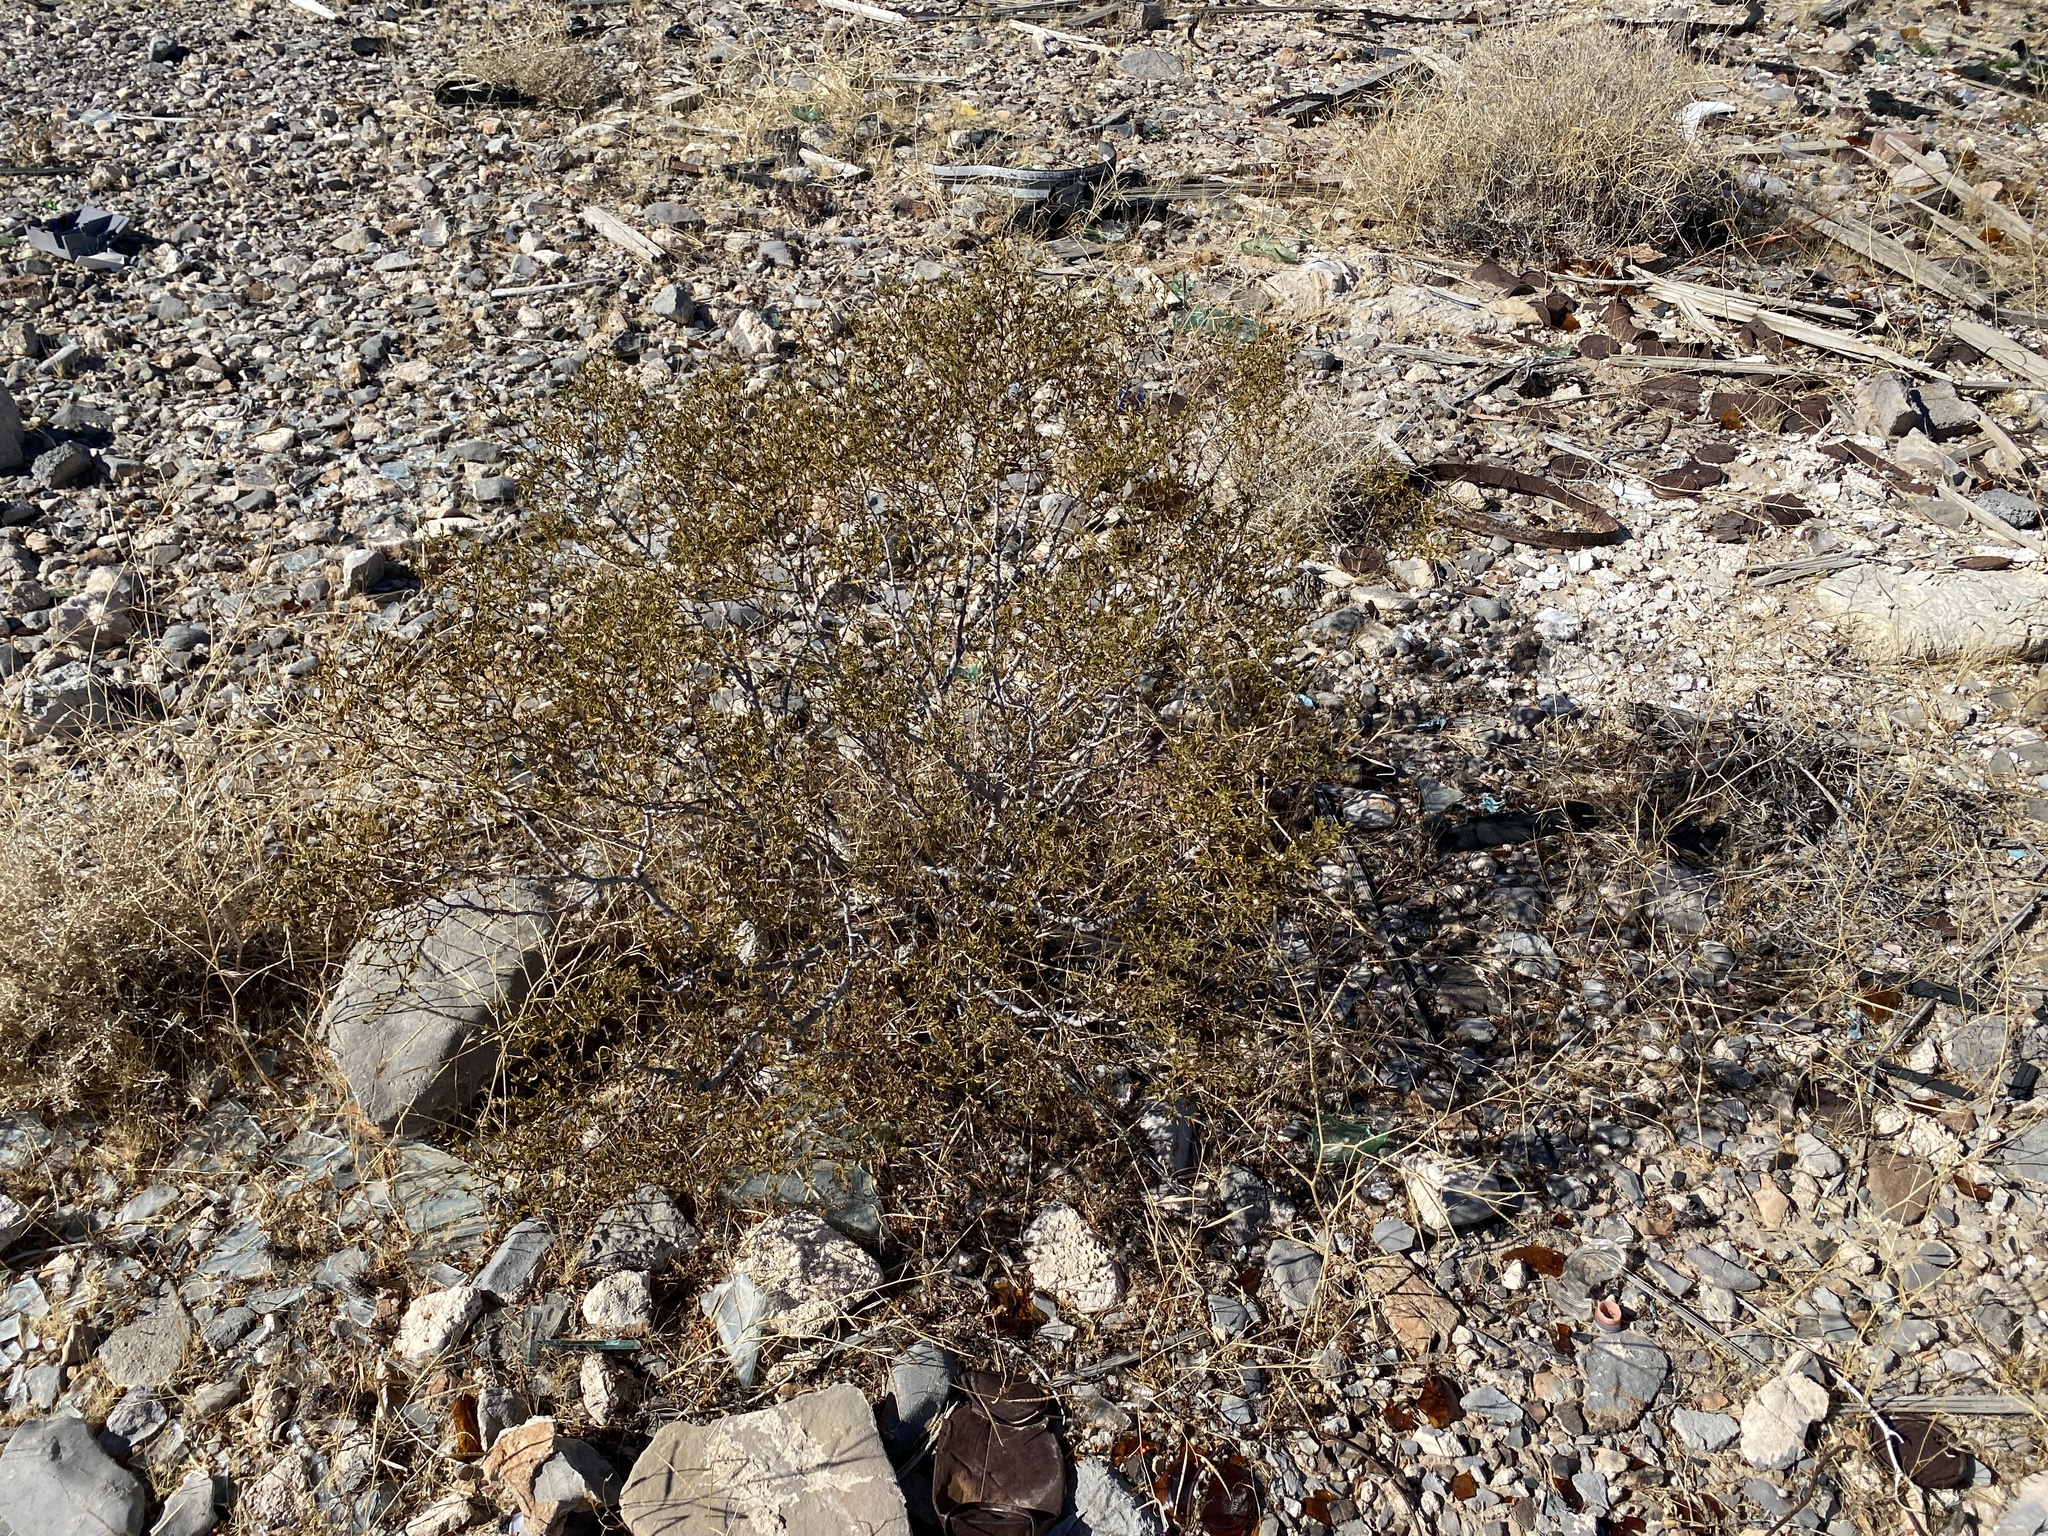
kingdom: Plantae
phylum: Tracheophyta
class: Magnoliopsida
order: Zygophyllales
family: Zygophyllaceae
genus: Larrea
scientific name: Larrea tridentata
